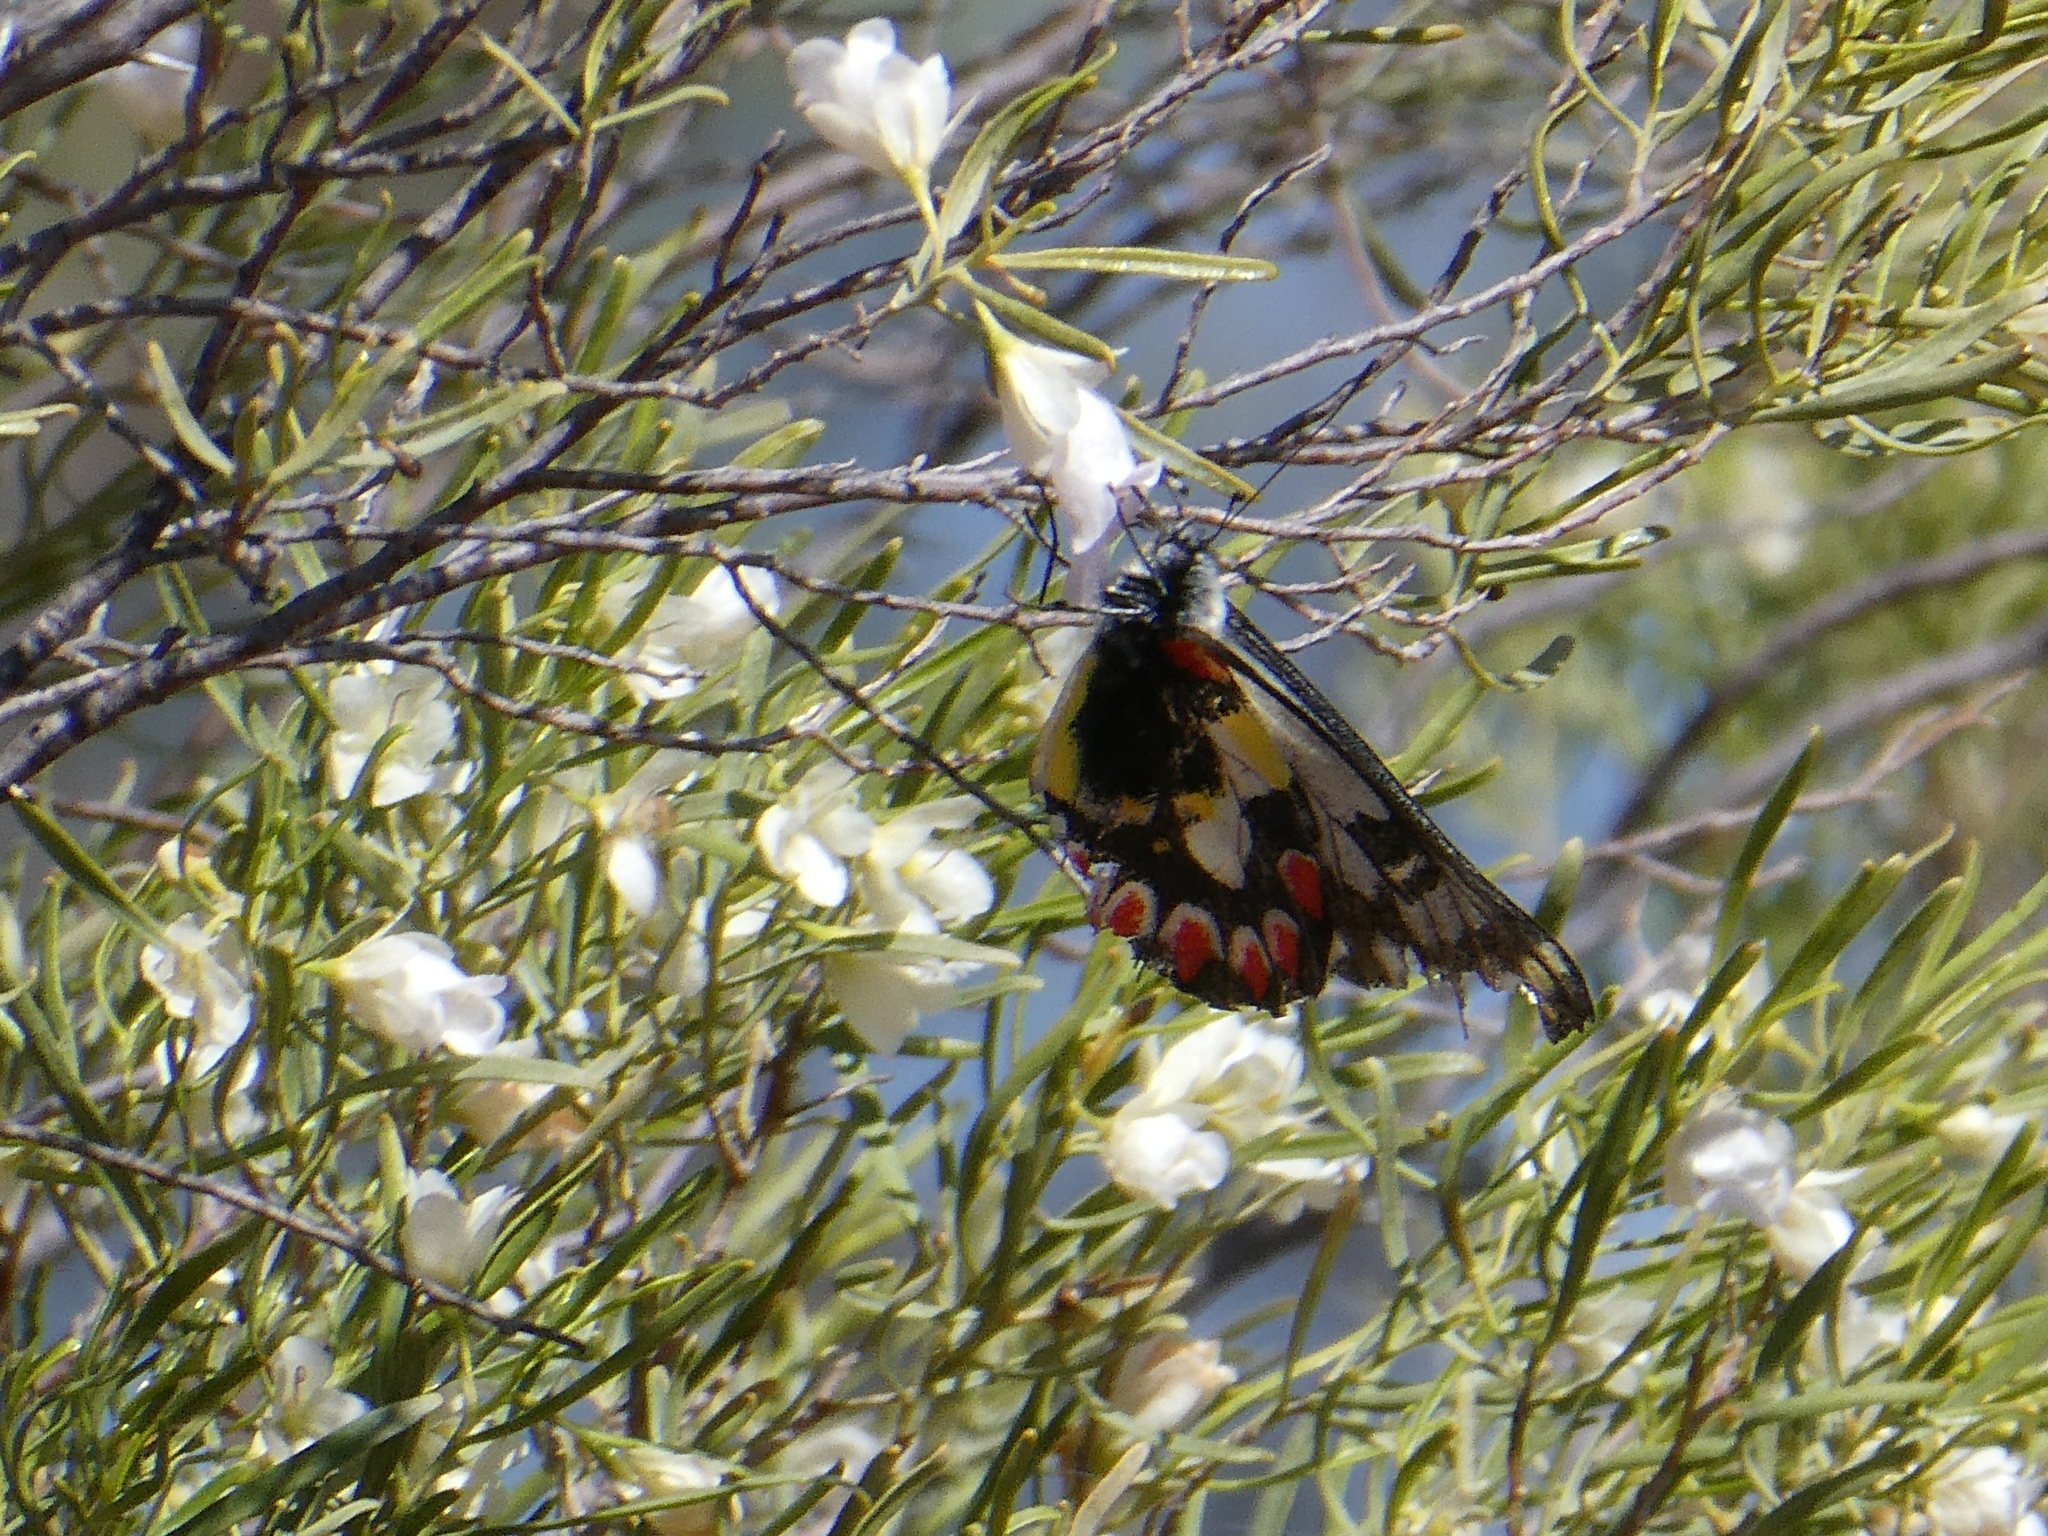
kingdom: Animalia
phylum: Arthropoda
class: Insecta
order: Lepidoptera
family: Pieridae
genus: Delias
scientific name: Delias aganippe
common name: Red-spotted jezebel
